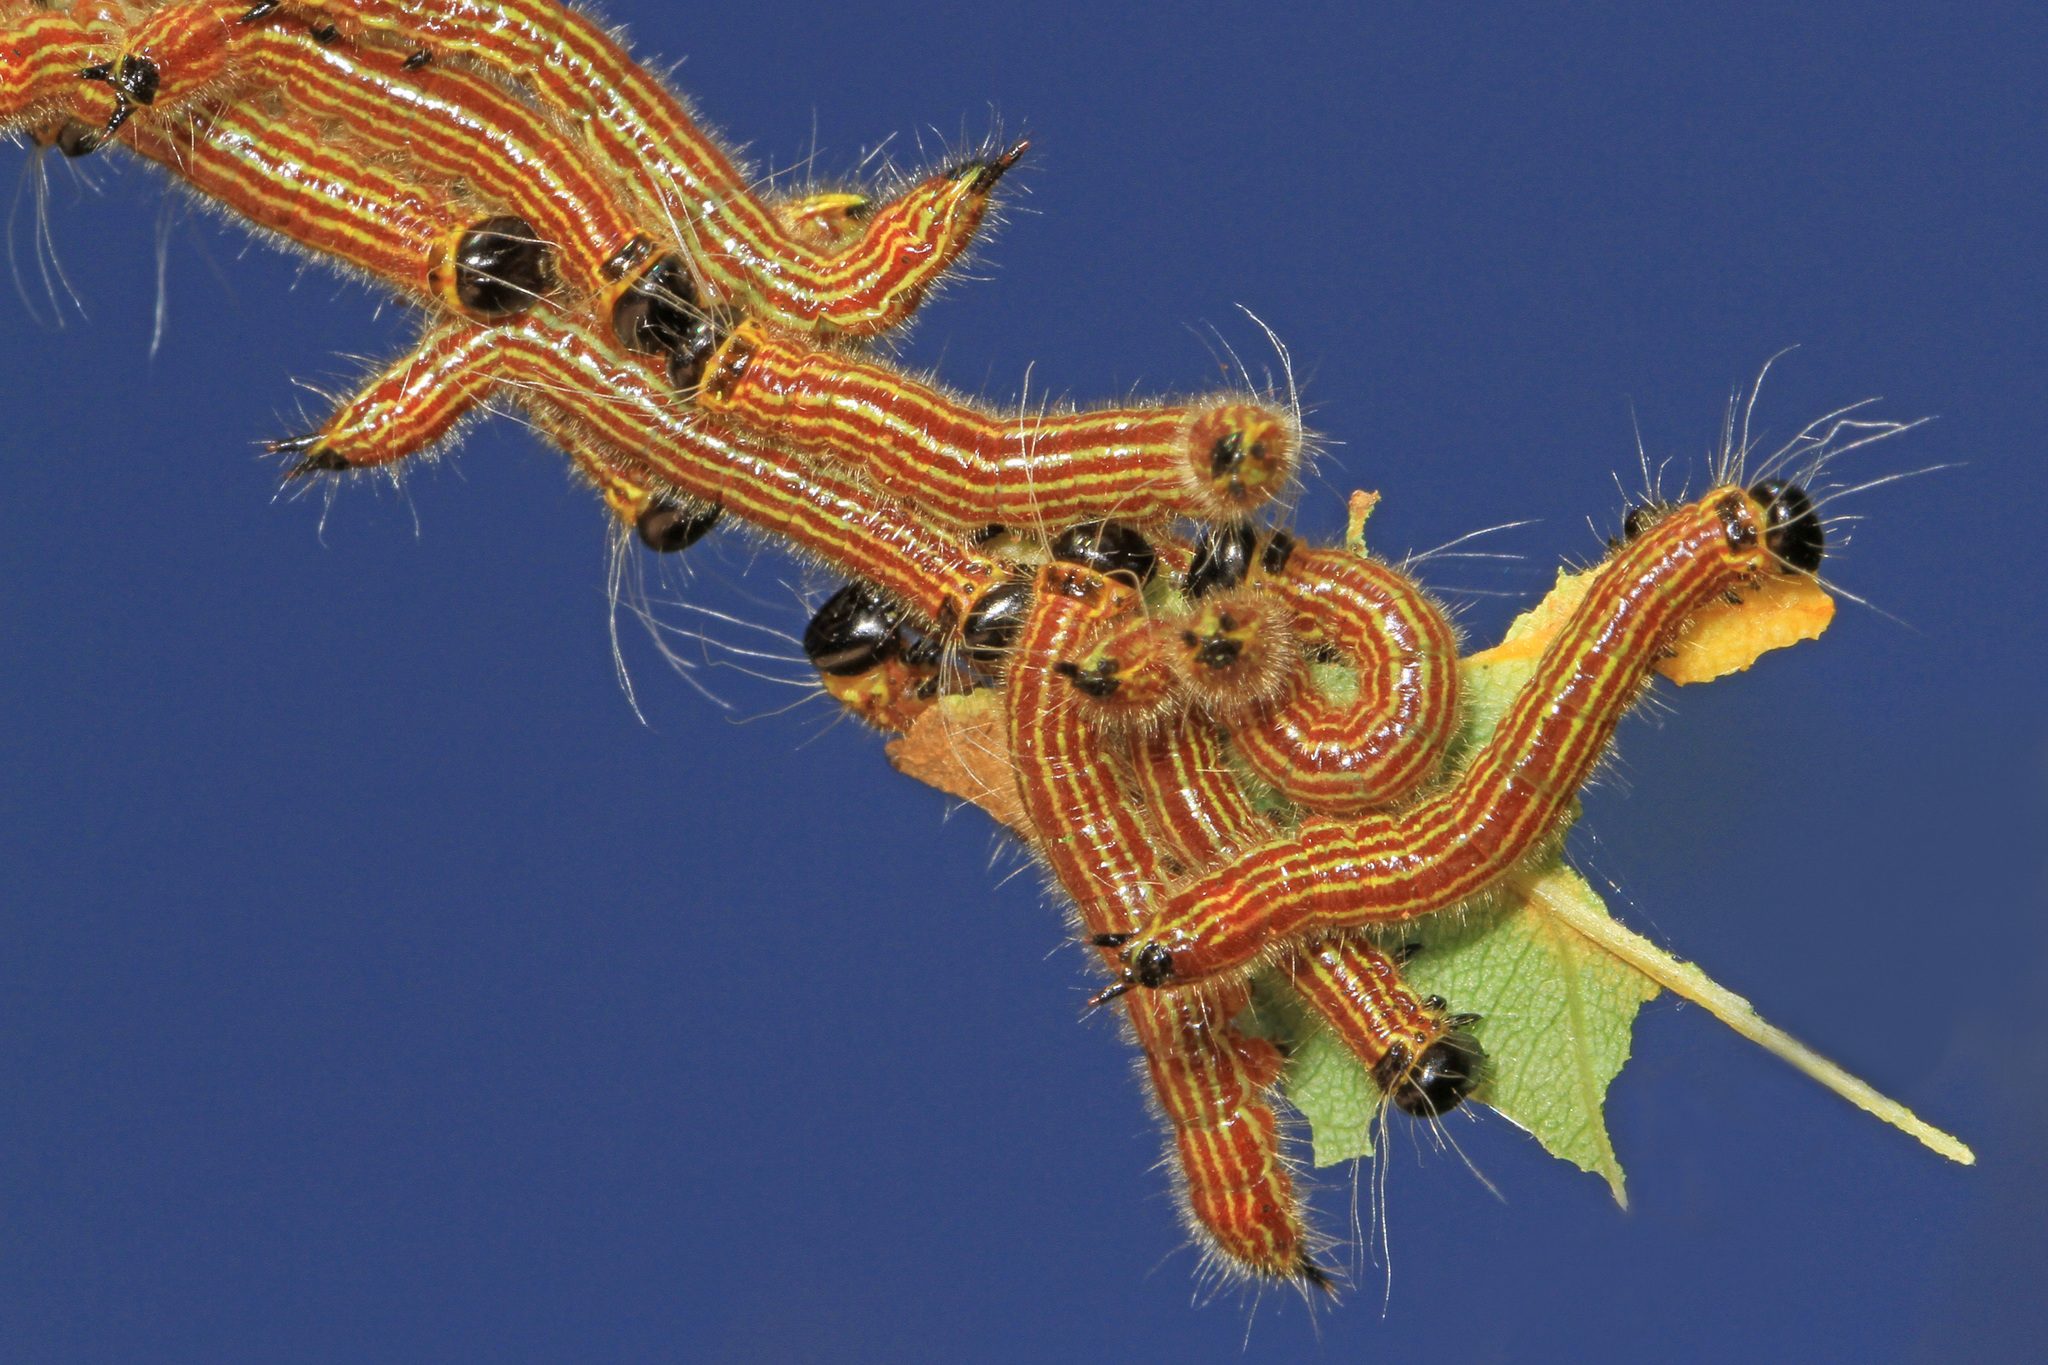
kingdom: Animalia
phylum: Arthropoda
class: Insecta
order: Lepidoptera
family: Notodontidae
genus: Datana
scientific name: Datana ministra
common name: Yellow-necked caterpillar moth
